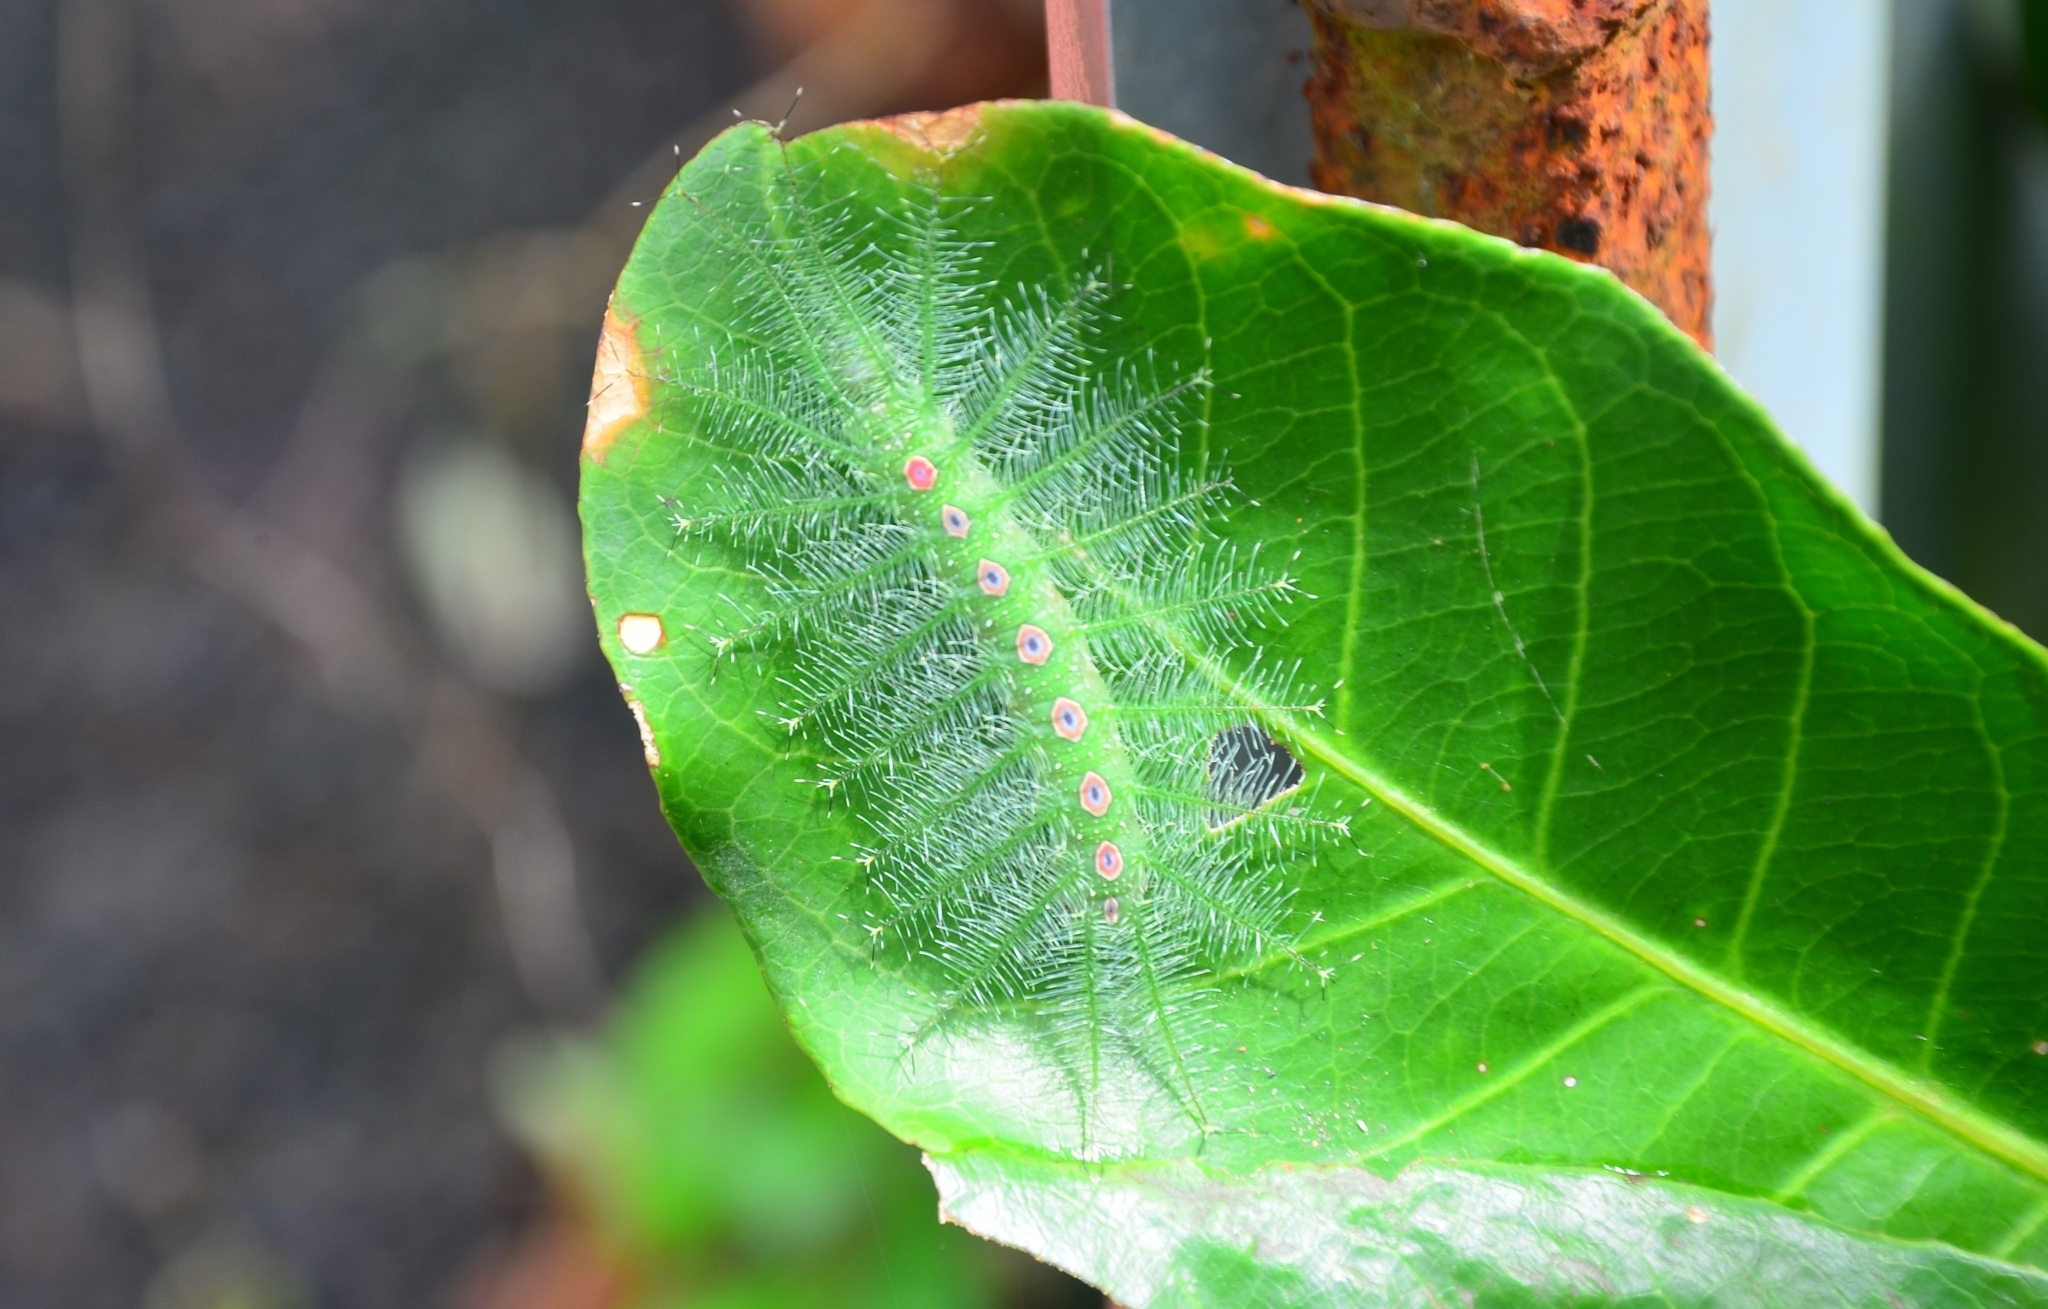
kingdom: Animalia
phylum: Arthropoda
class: Insecta
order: Lepidoptera
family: Nymphalidae
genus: Tanaecia
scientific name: Tanaecia lepidea
